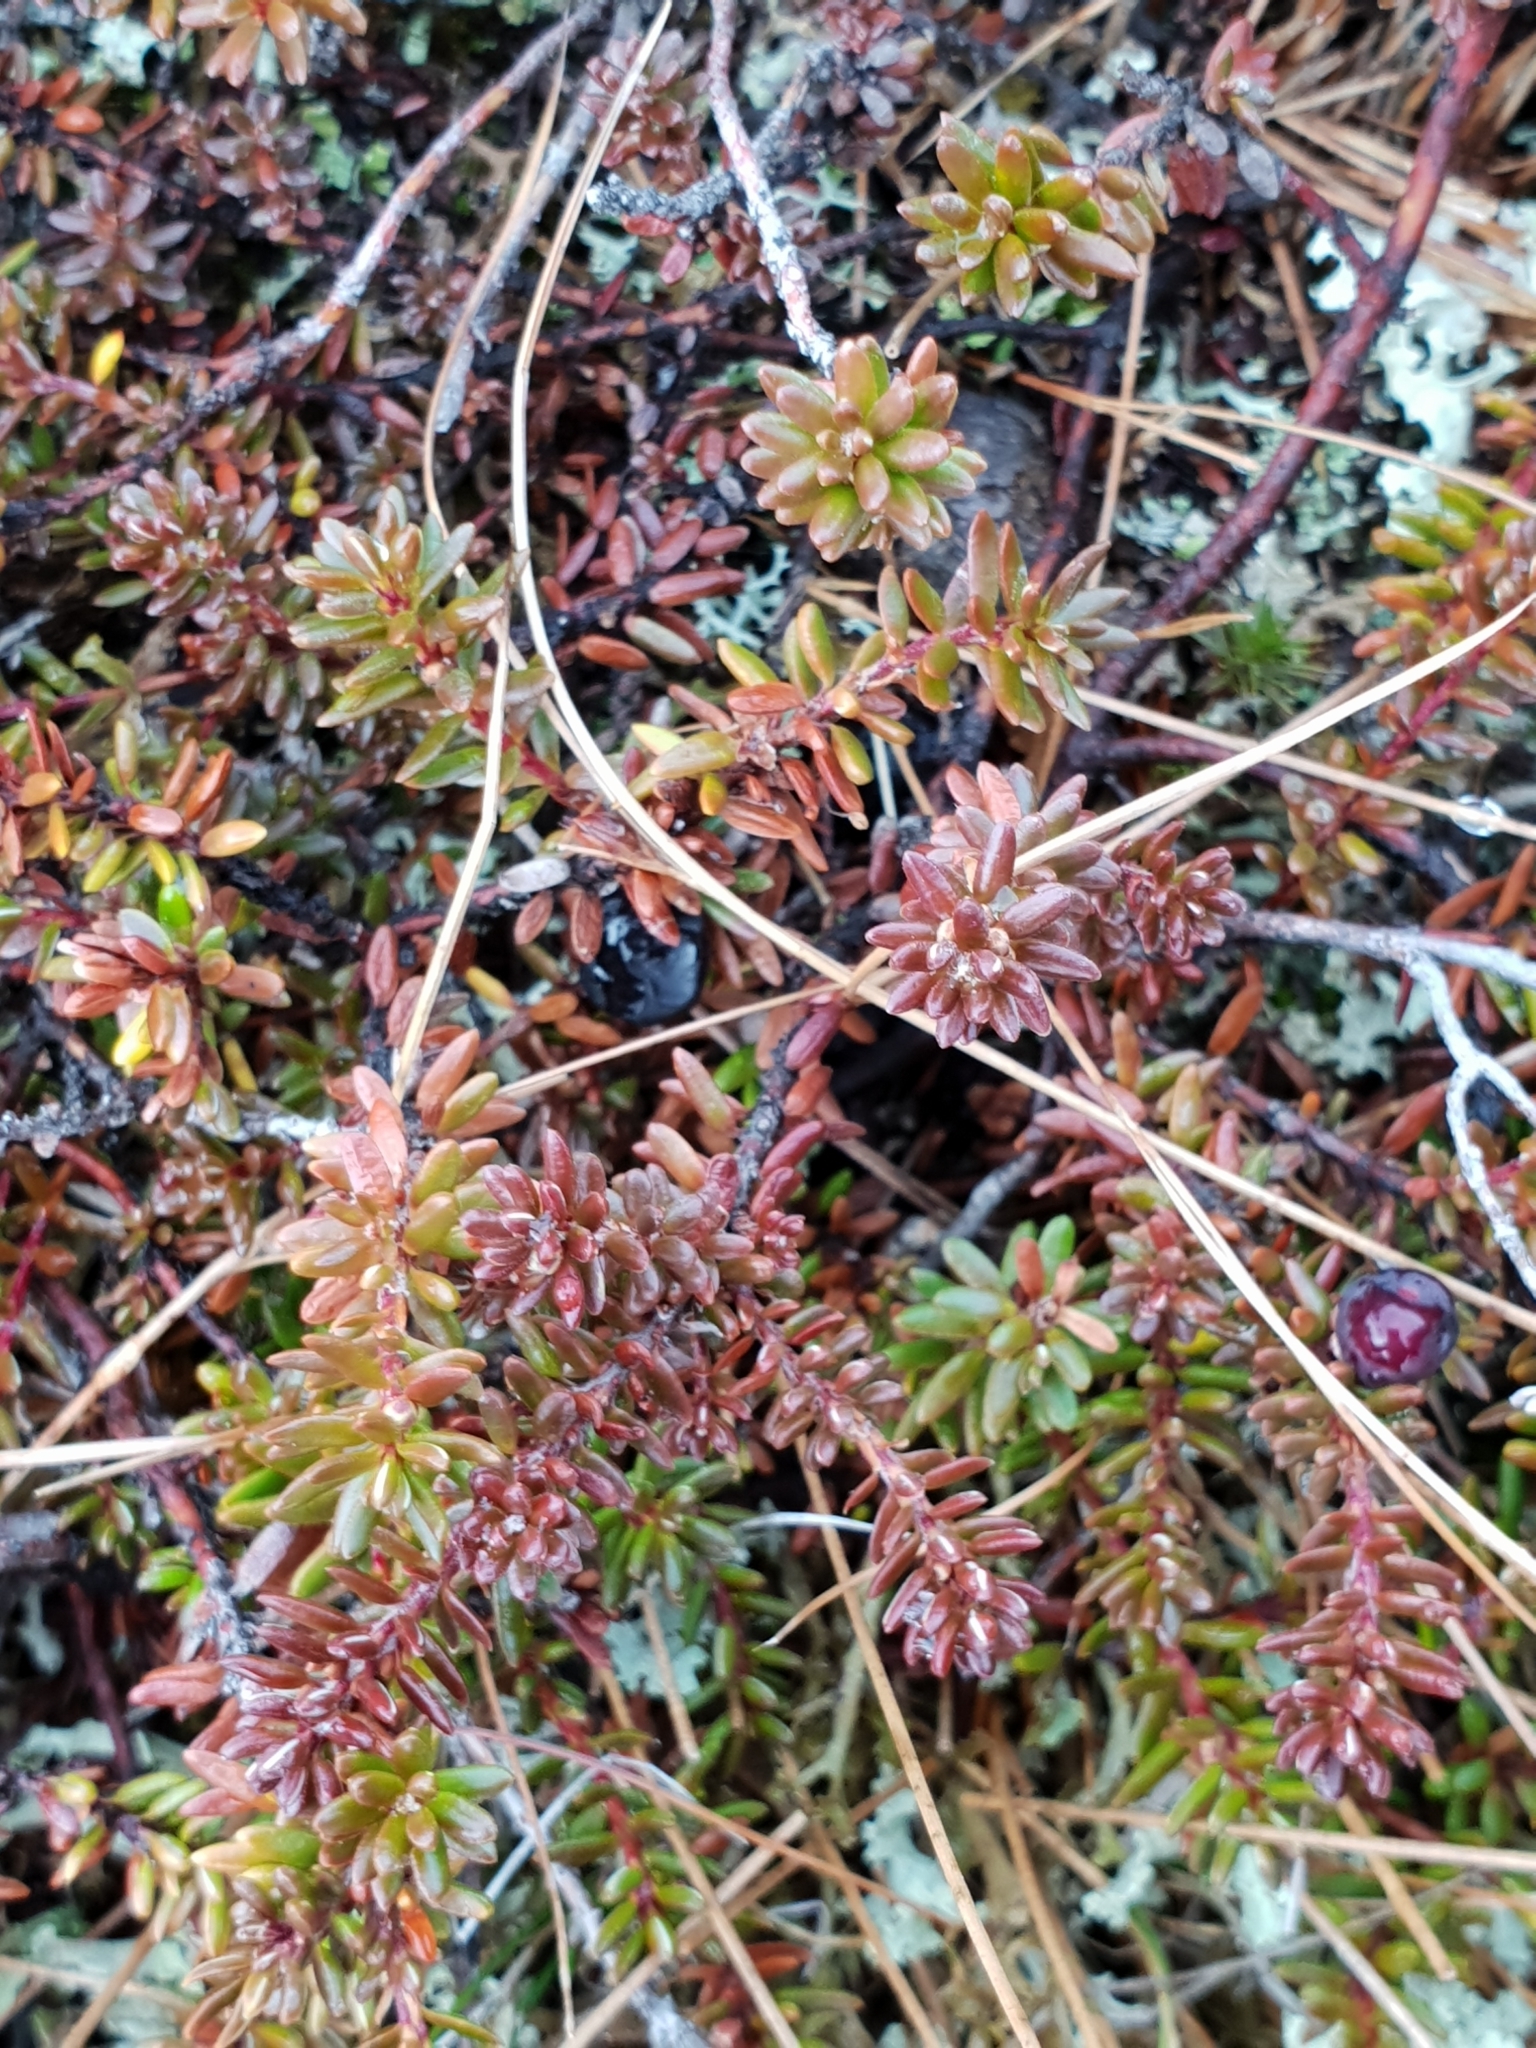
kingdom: Plantae
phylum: Tracheophyta
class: Magnoliopsida
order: Ericales
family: Ericaceae
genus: Empetrum
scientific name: Empetrum nigrum
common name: Black crowberry
